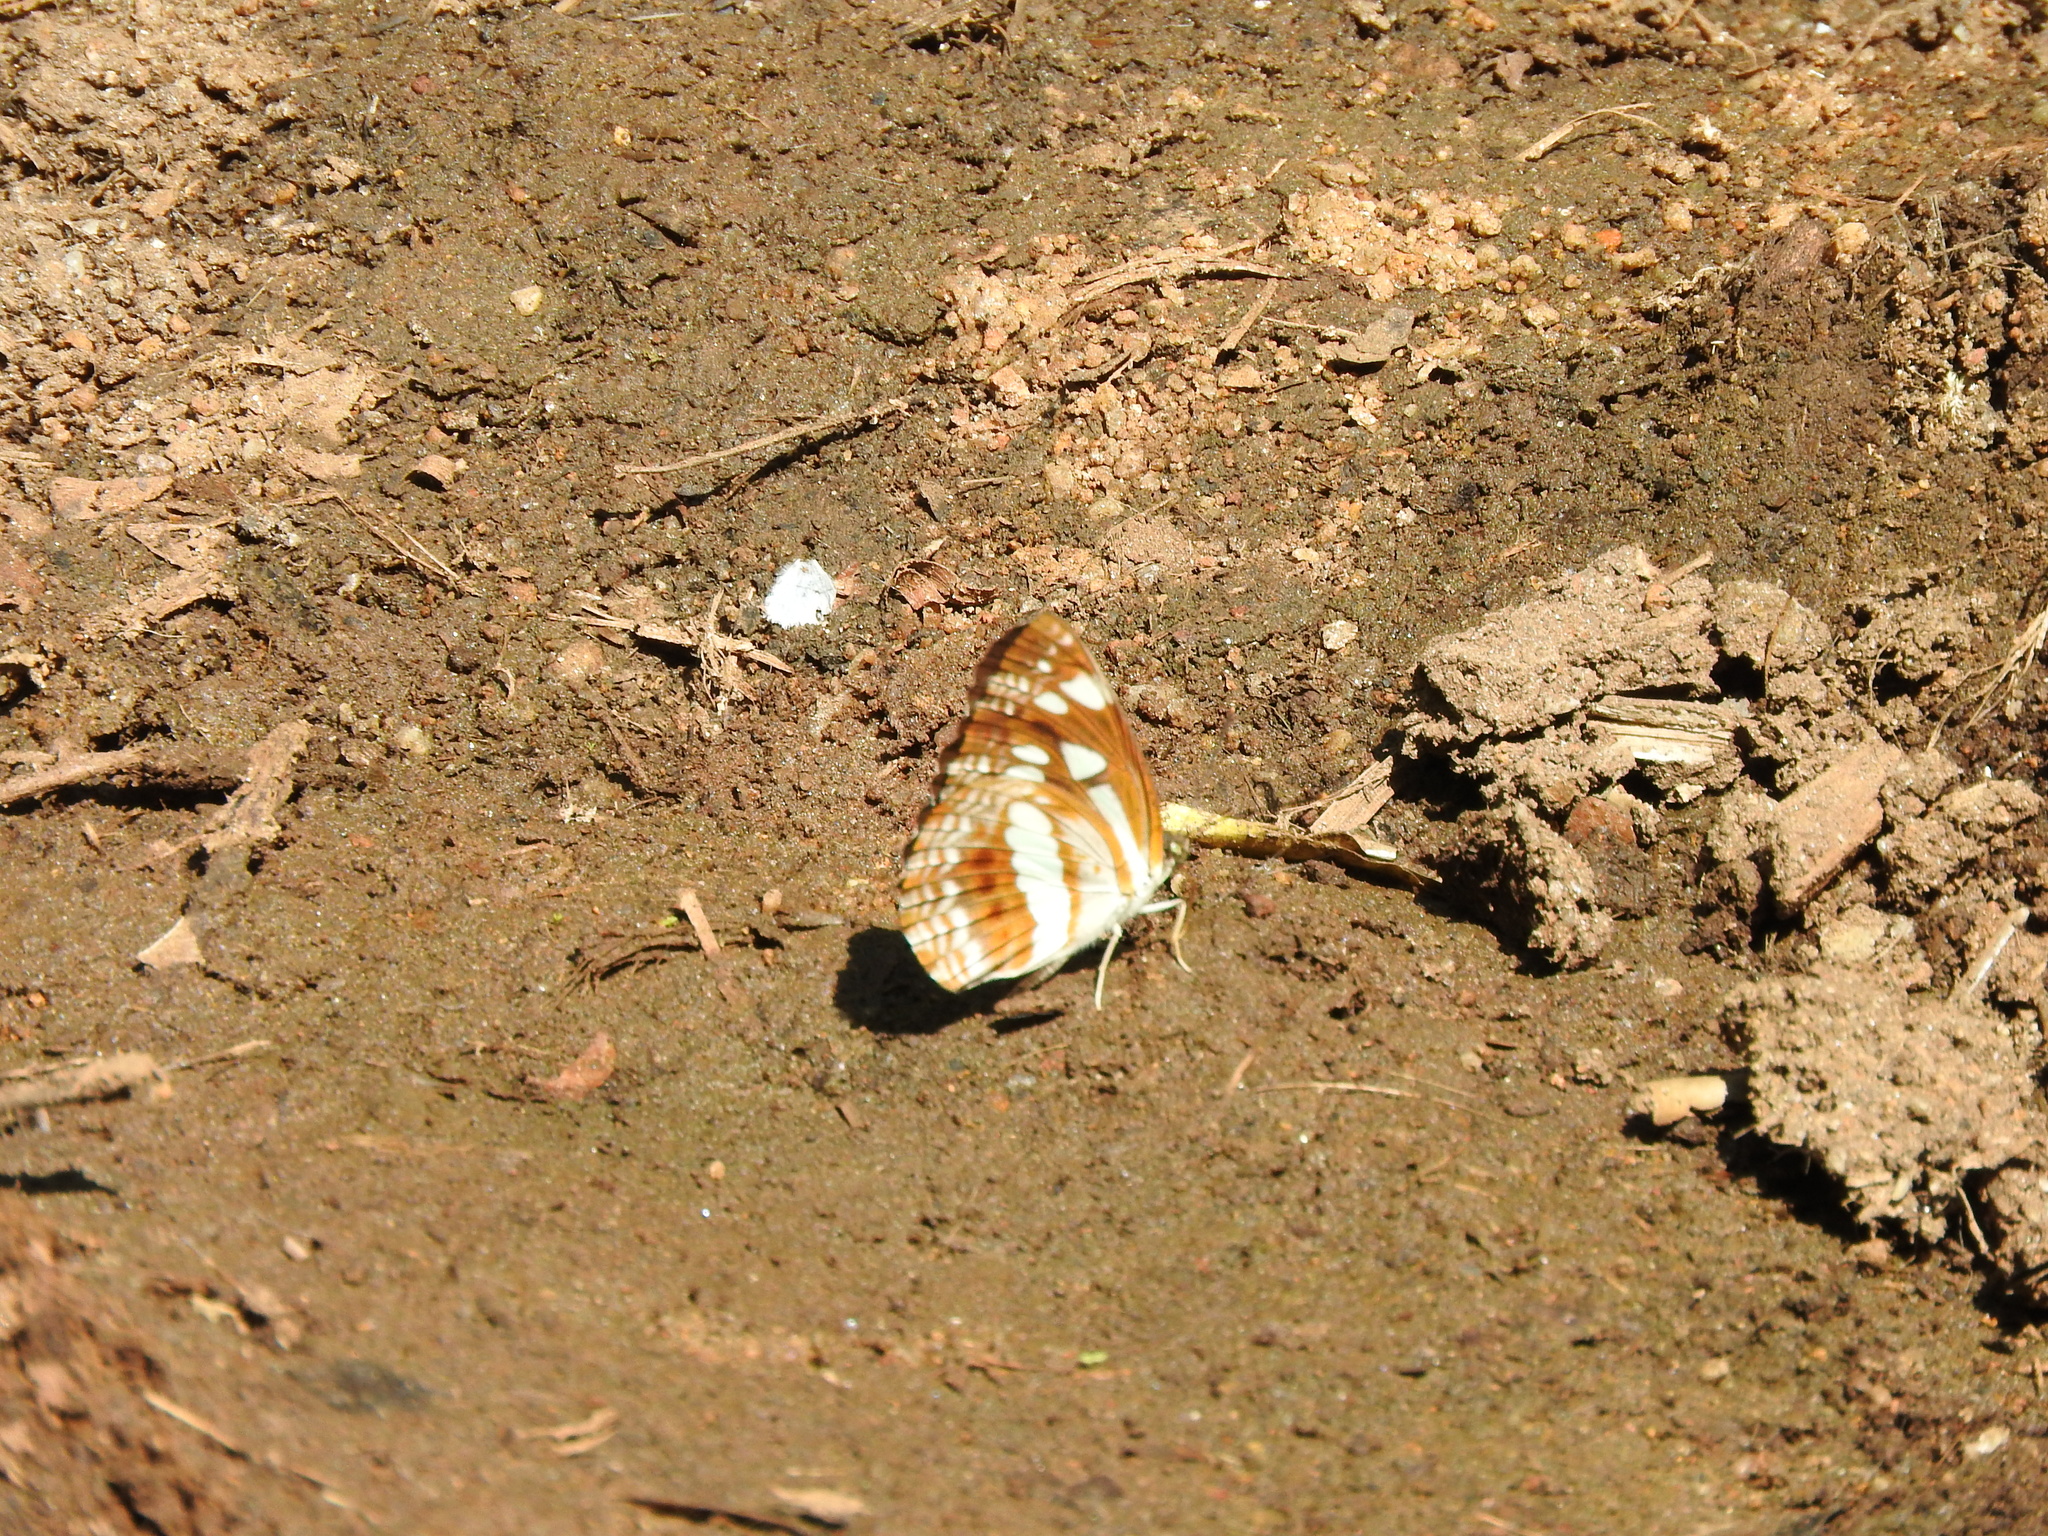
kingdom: Animalia
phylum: Arthropoda
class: Insecta
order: Lepidoptera
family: Nymphalidae
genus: Neptis
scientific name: Neptis jumbah
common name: Chestnut-streaked sailer
